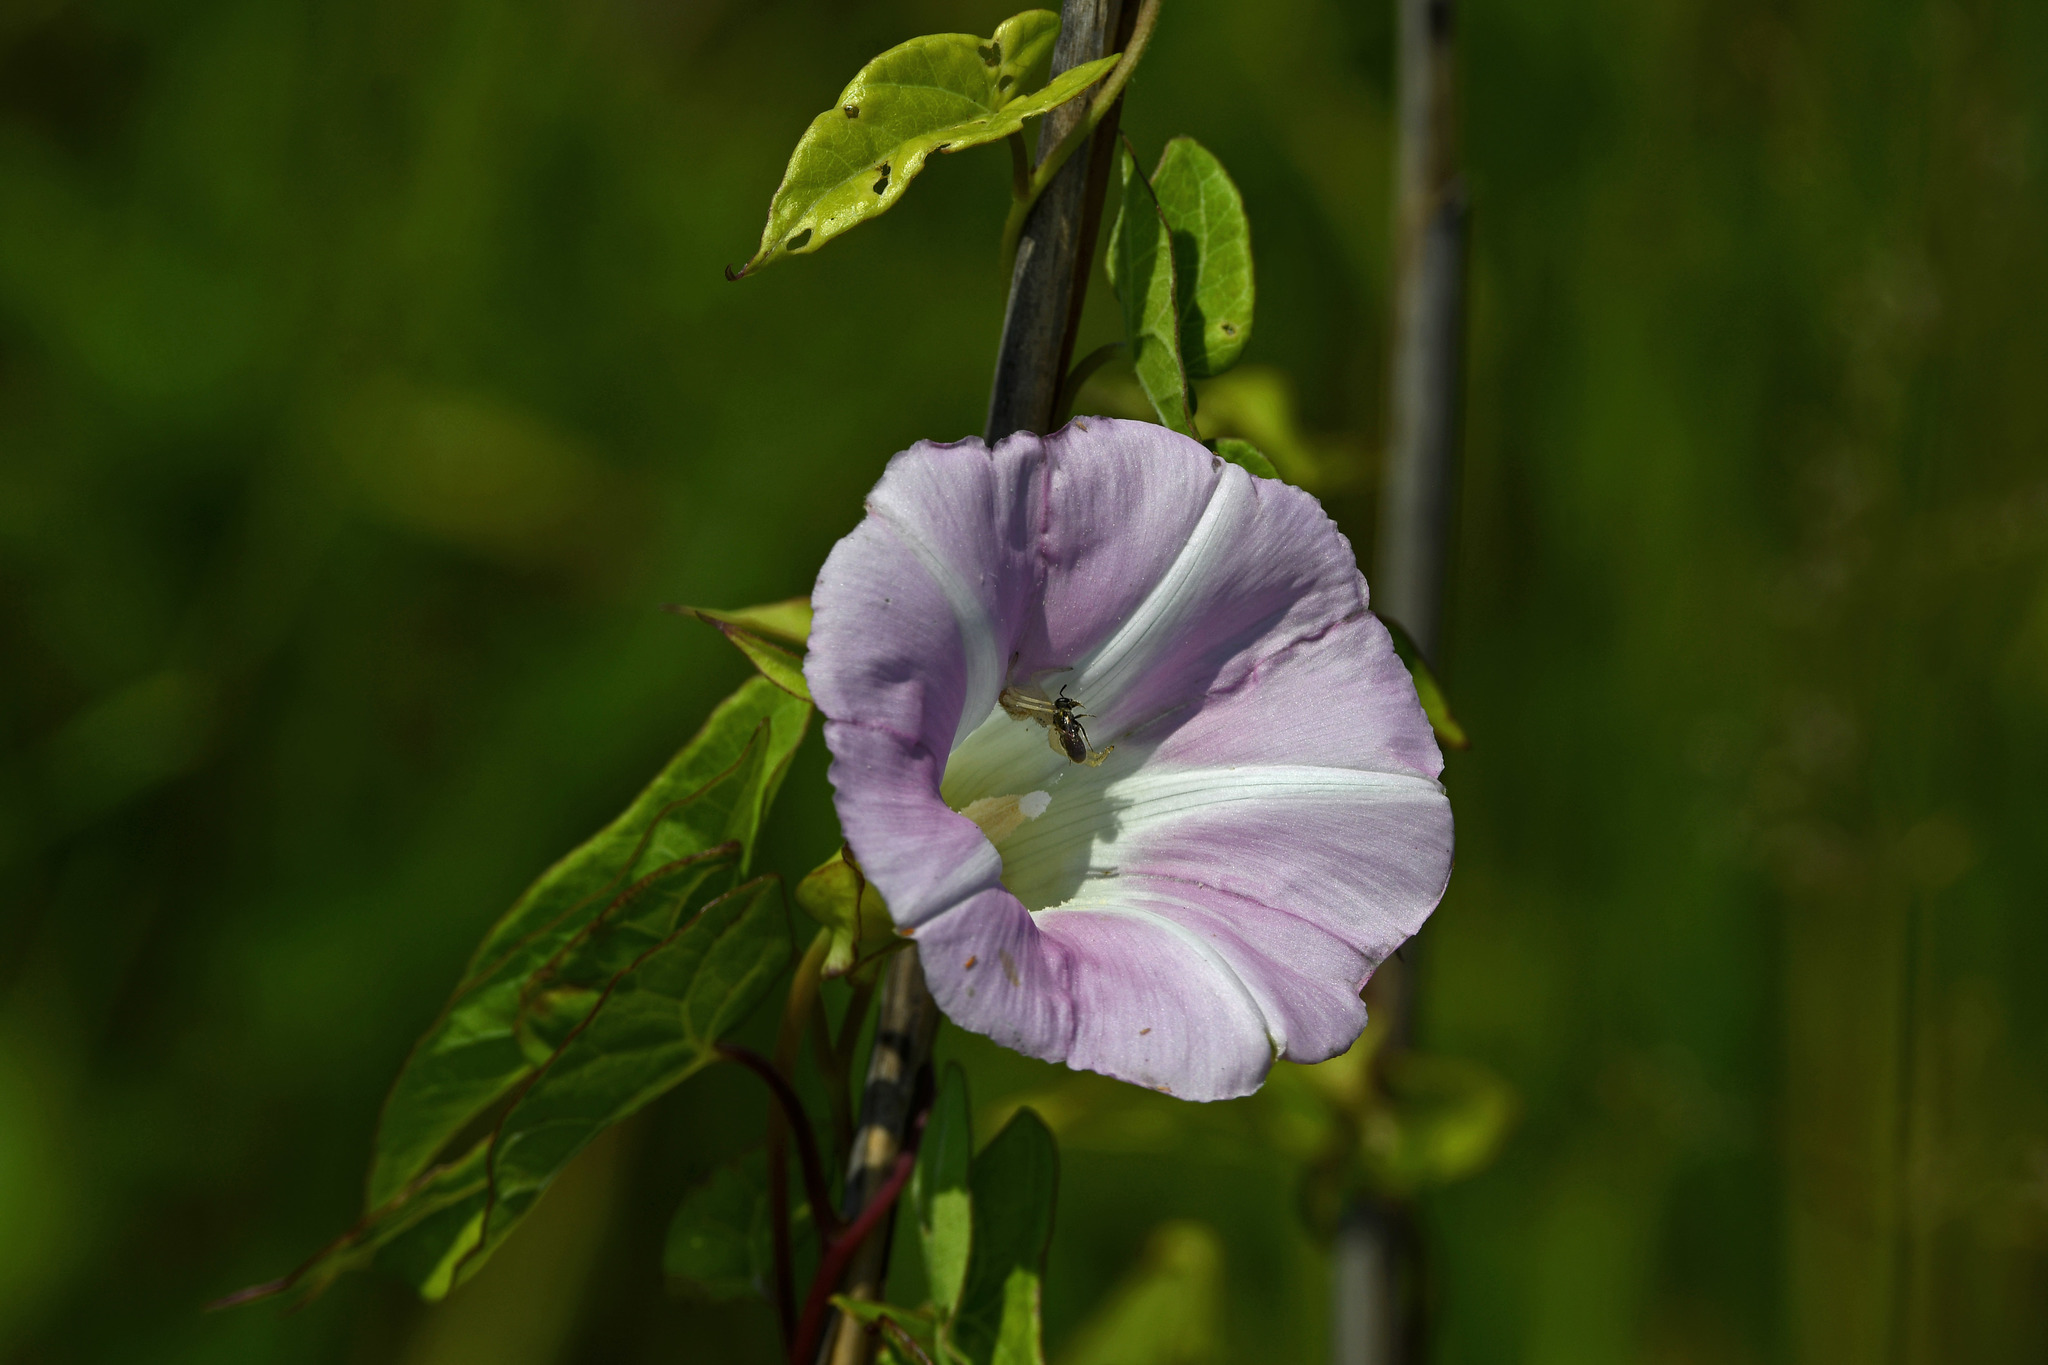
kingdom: Plantae
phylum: Tracheophyta
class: Magnoliopsida
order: Solanales
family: Convolvulaceae
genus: Calystegia
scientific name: Calystegia sepium
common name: Hedge bindweed
